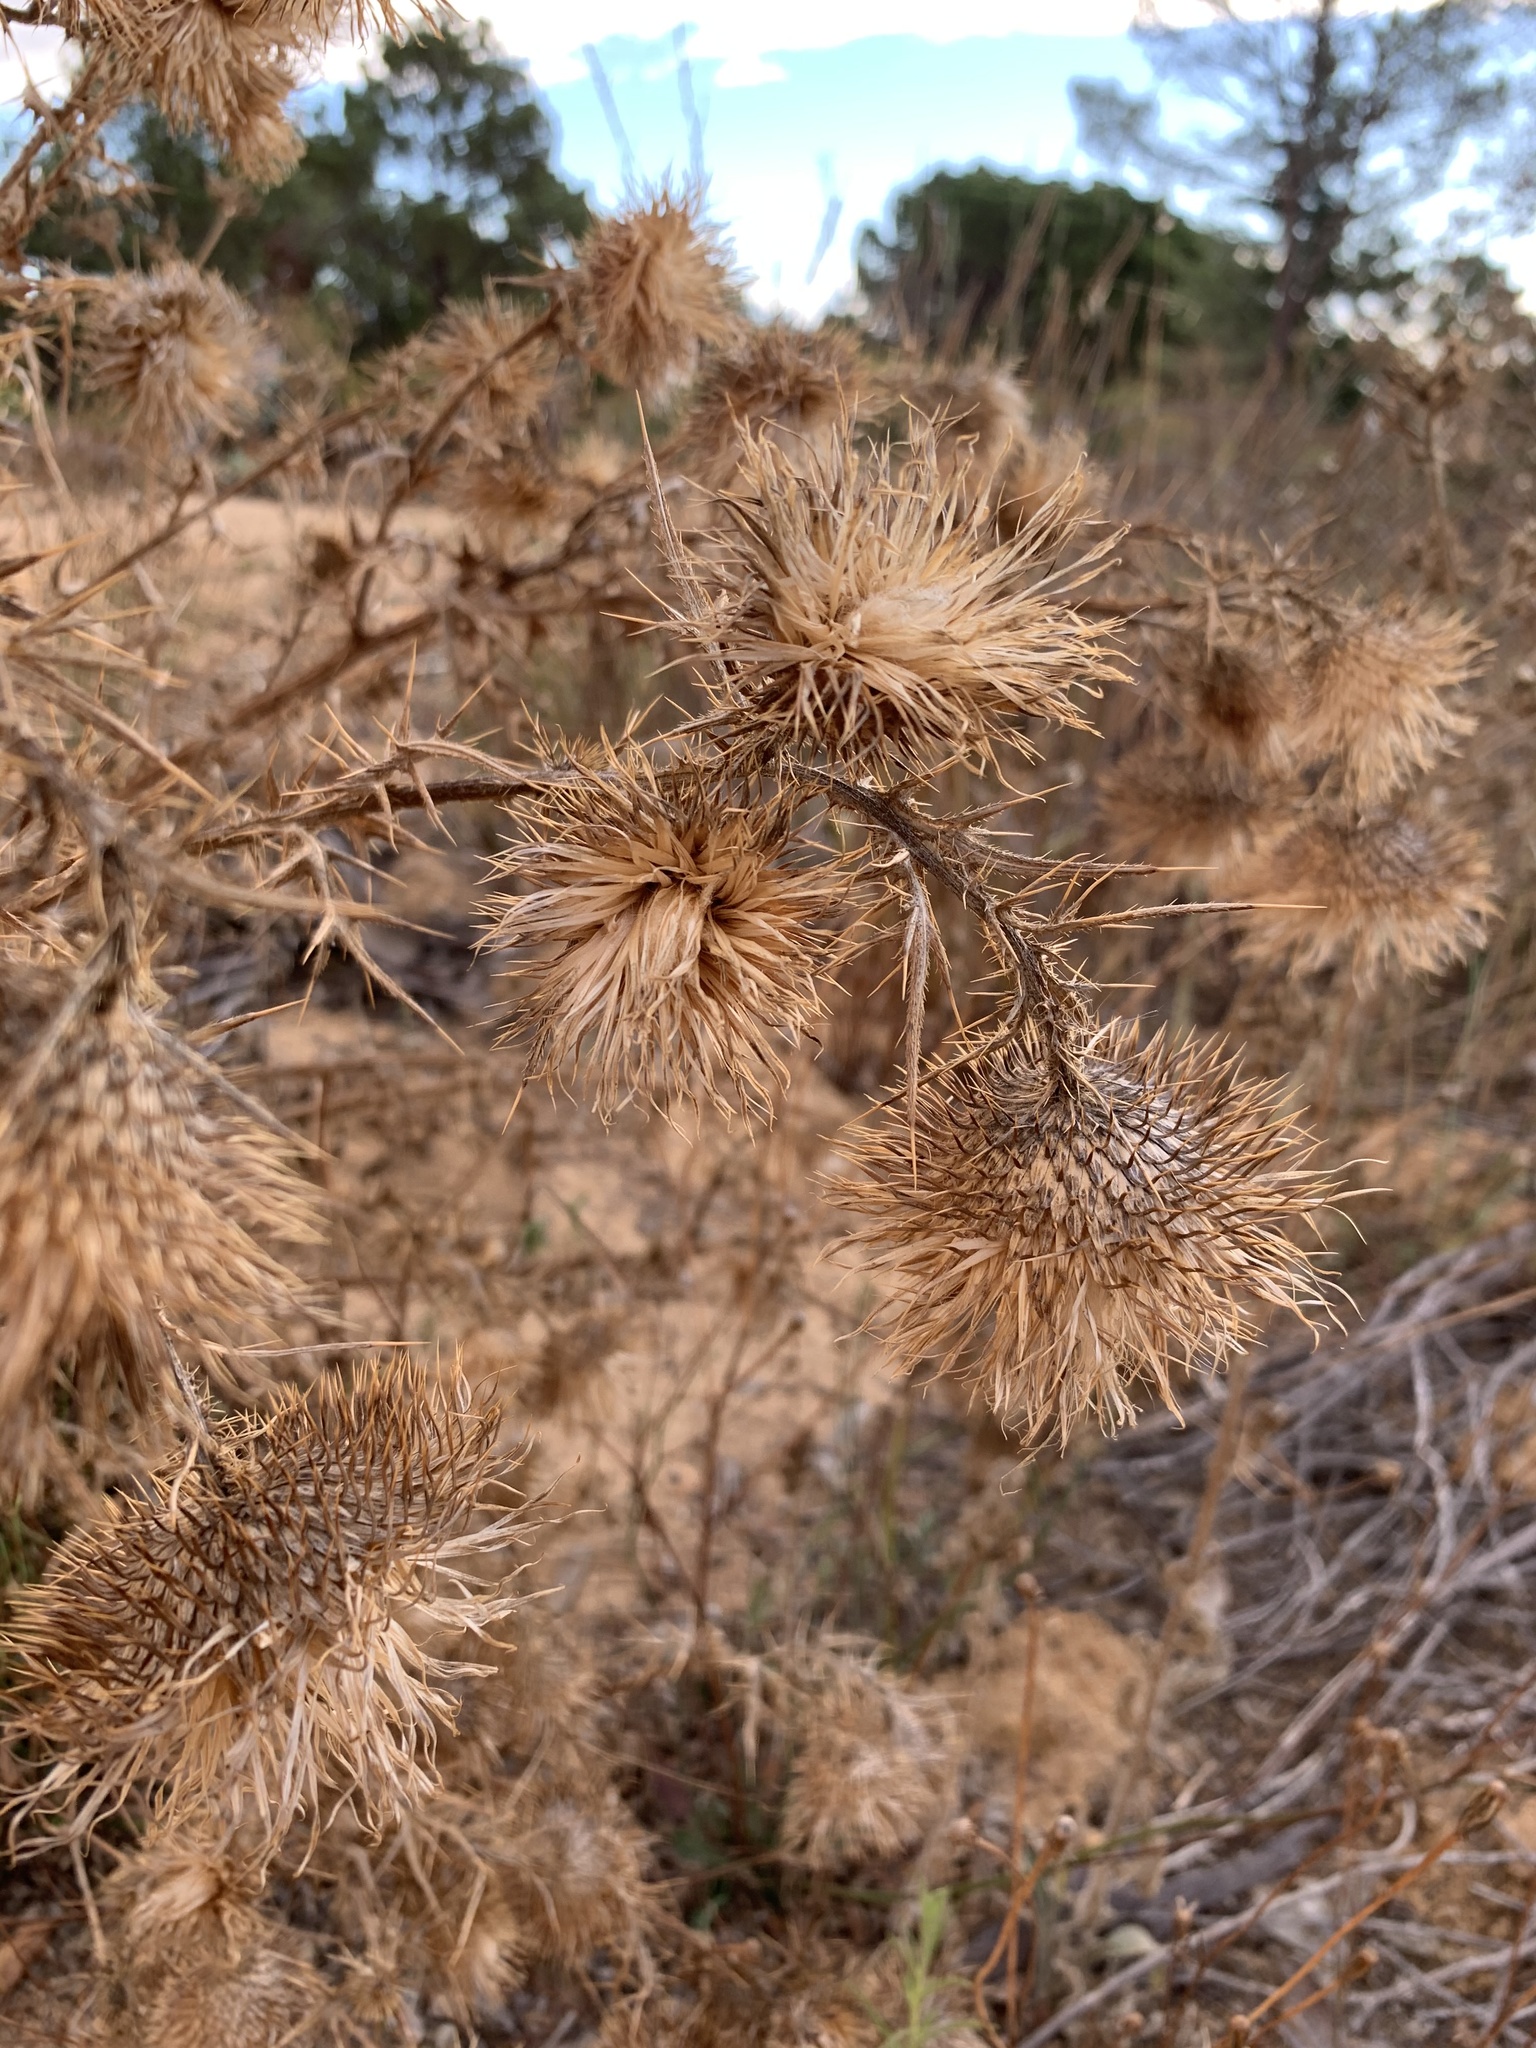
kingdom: Plantae
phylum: Tracheophyta
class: Magnoliopsida
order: Asterales
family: Asteraceae
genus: Cirsium
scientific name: Cirsium vulgare
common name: Bull thistle
